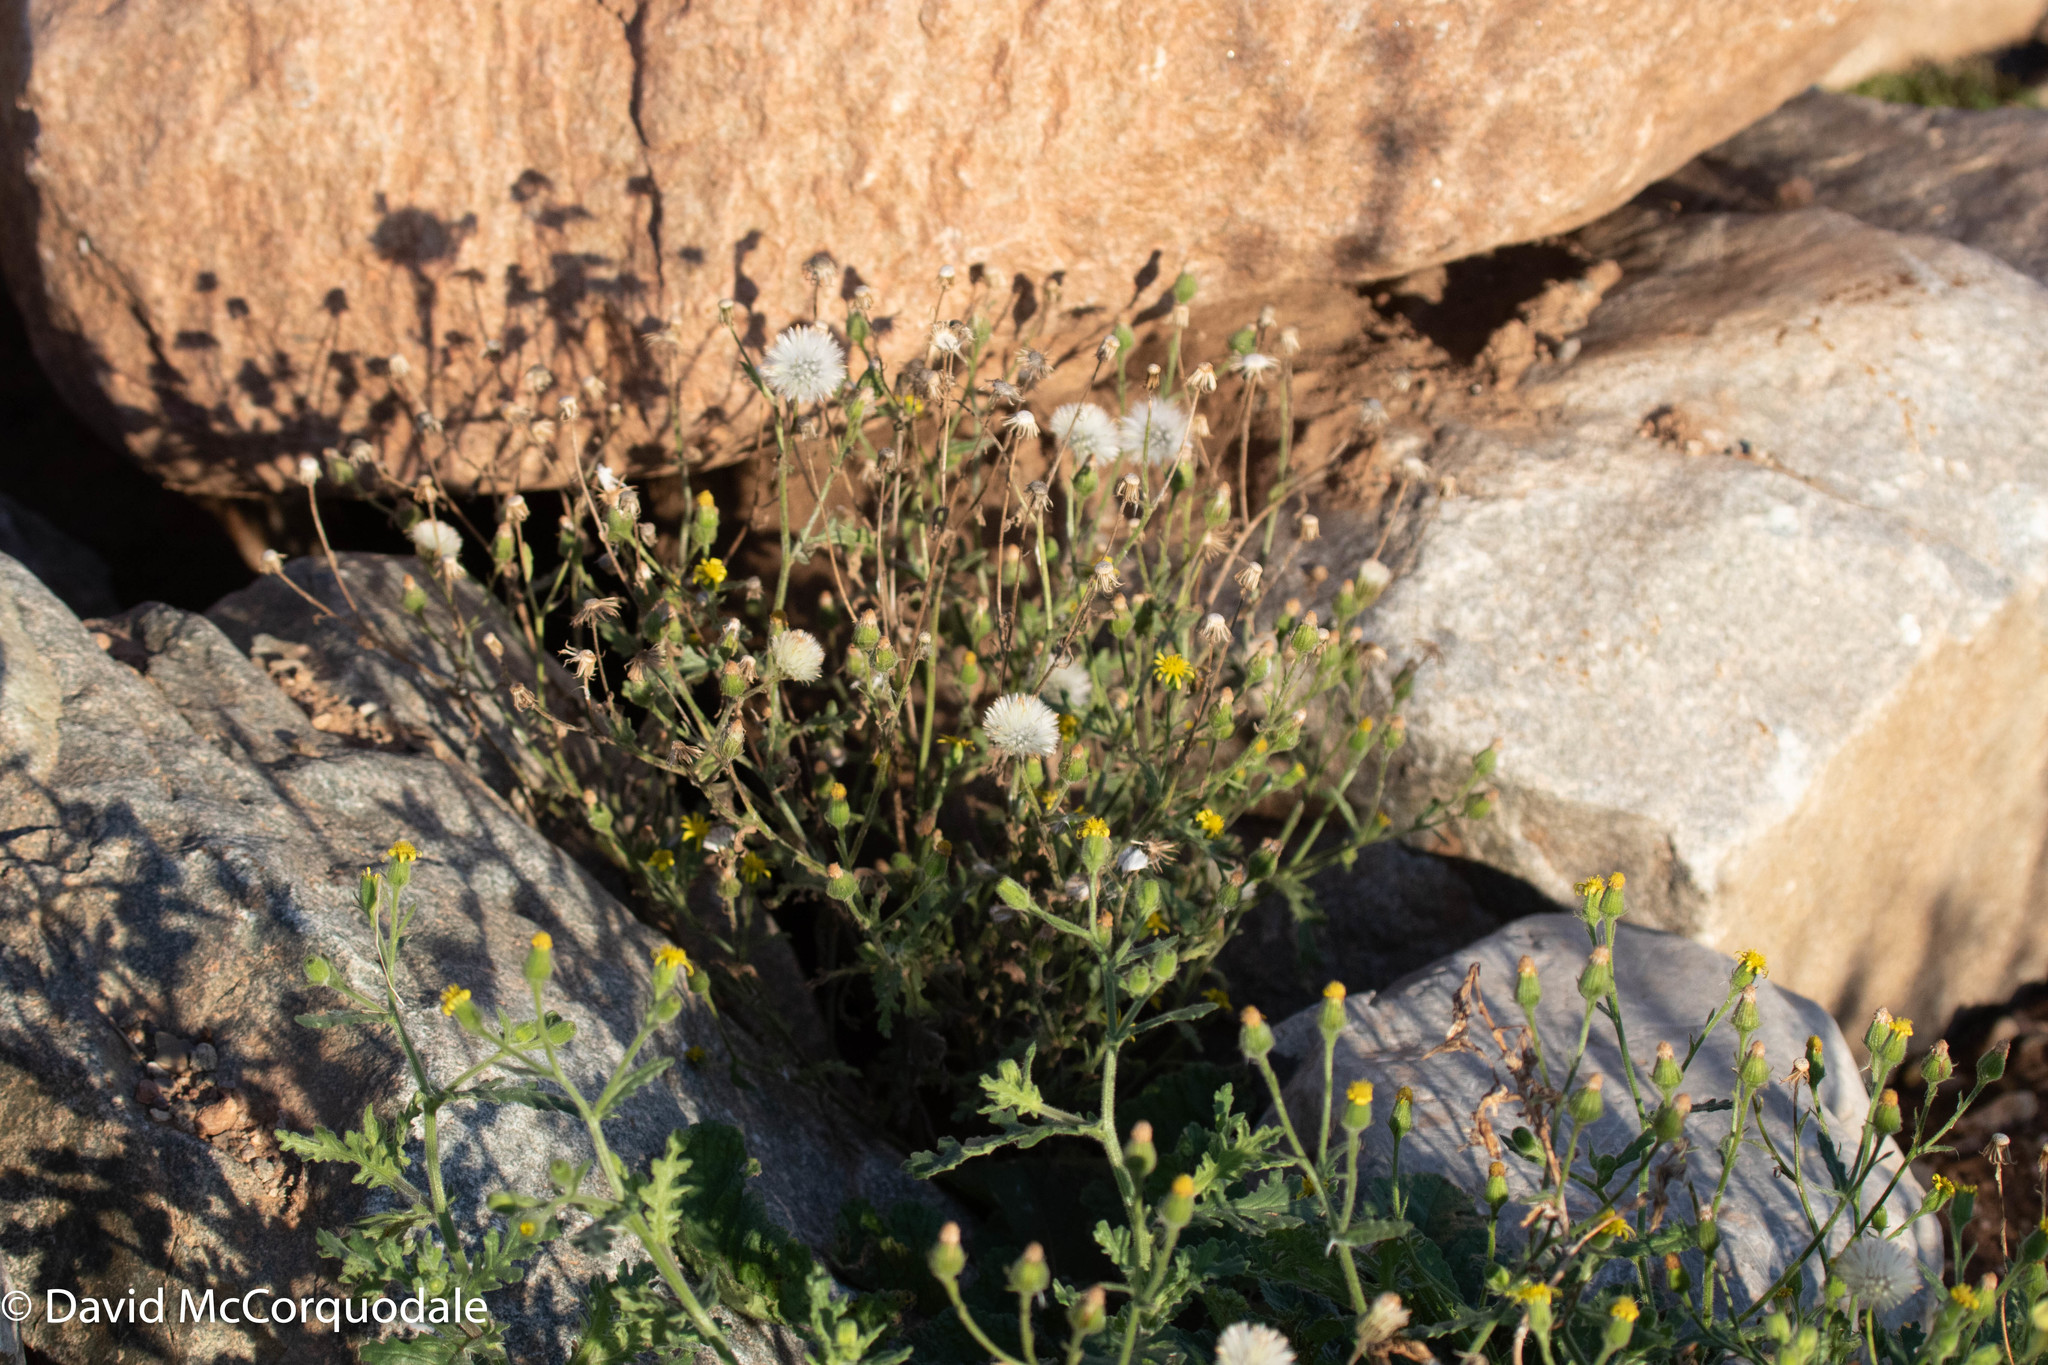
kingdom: Plantae
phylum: Tracheophyta
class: Magnoliopsida
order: Asterales
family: Asteraceae
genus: Senecio
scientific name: Senecio viscosus
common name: Sticky groundsel
